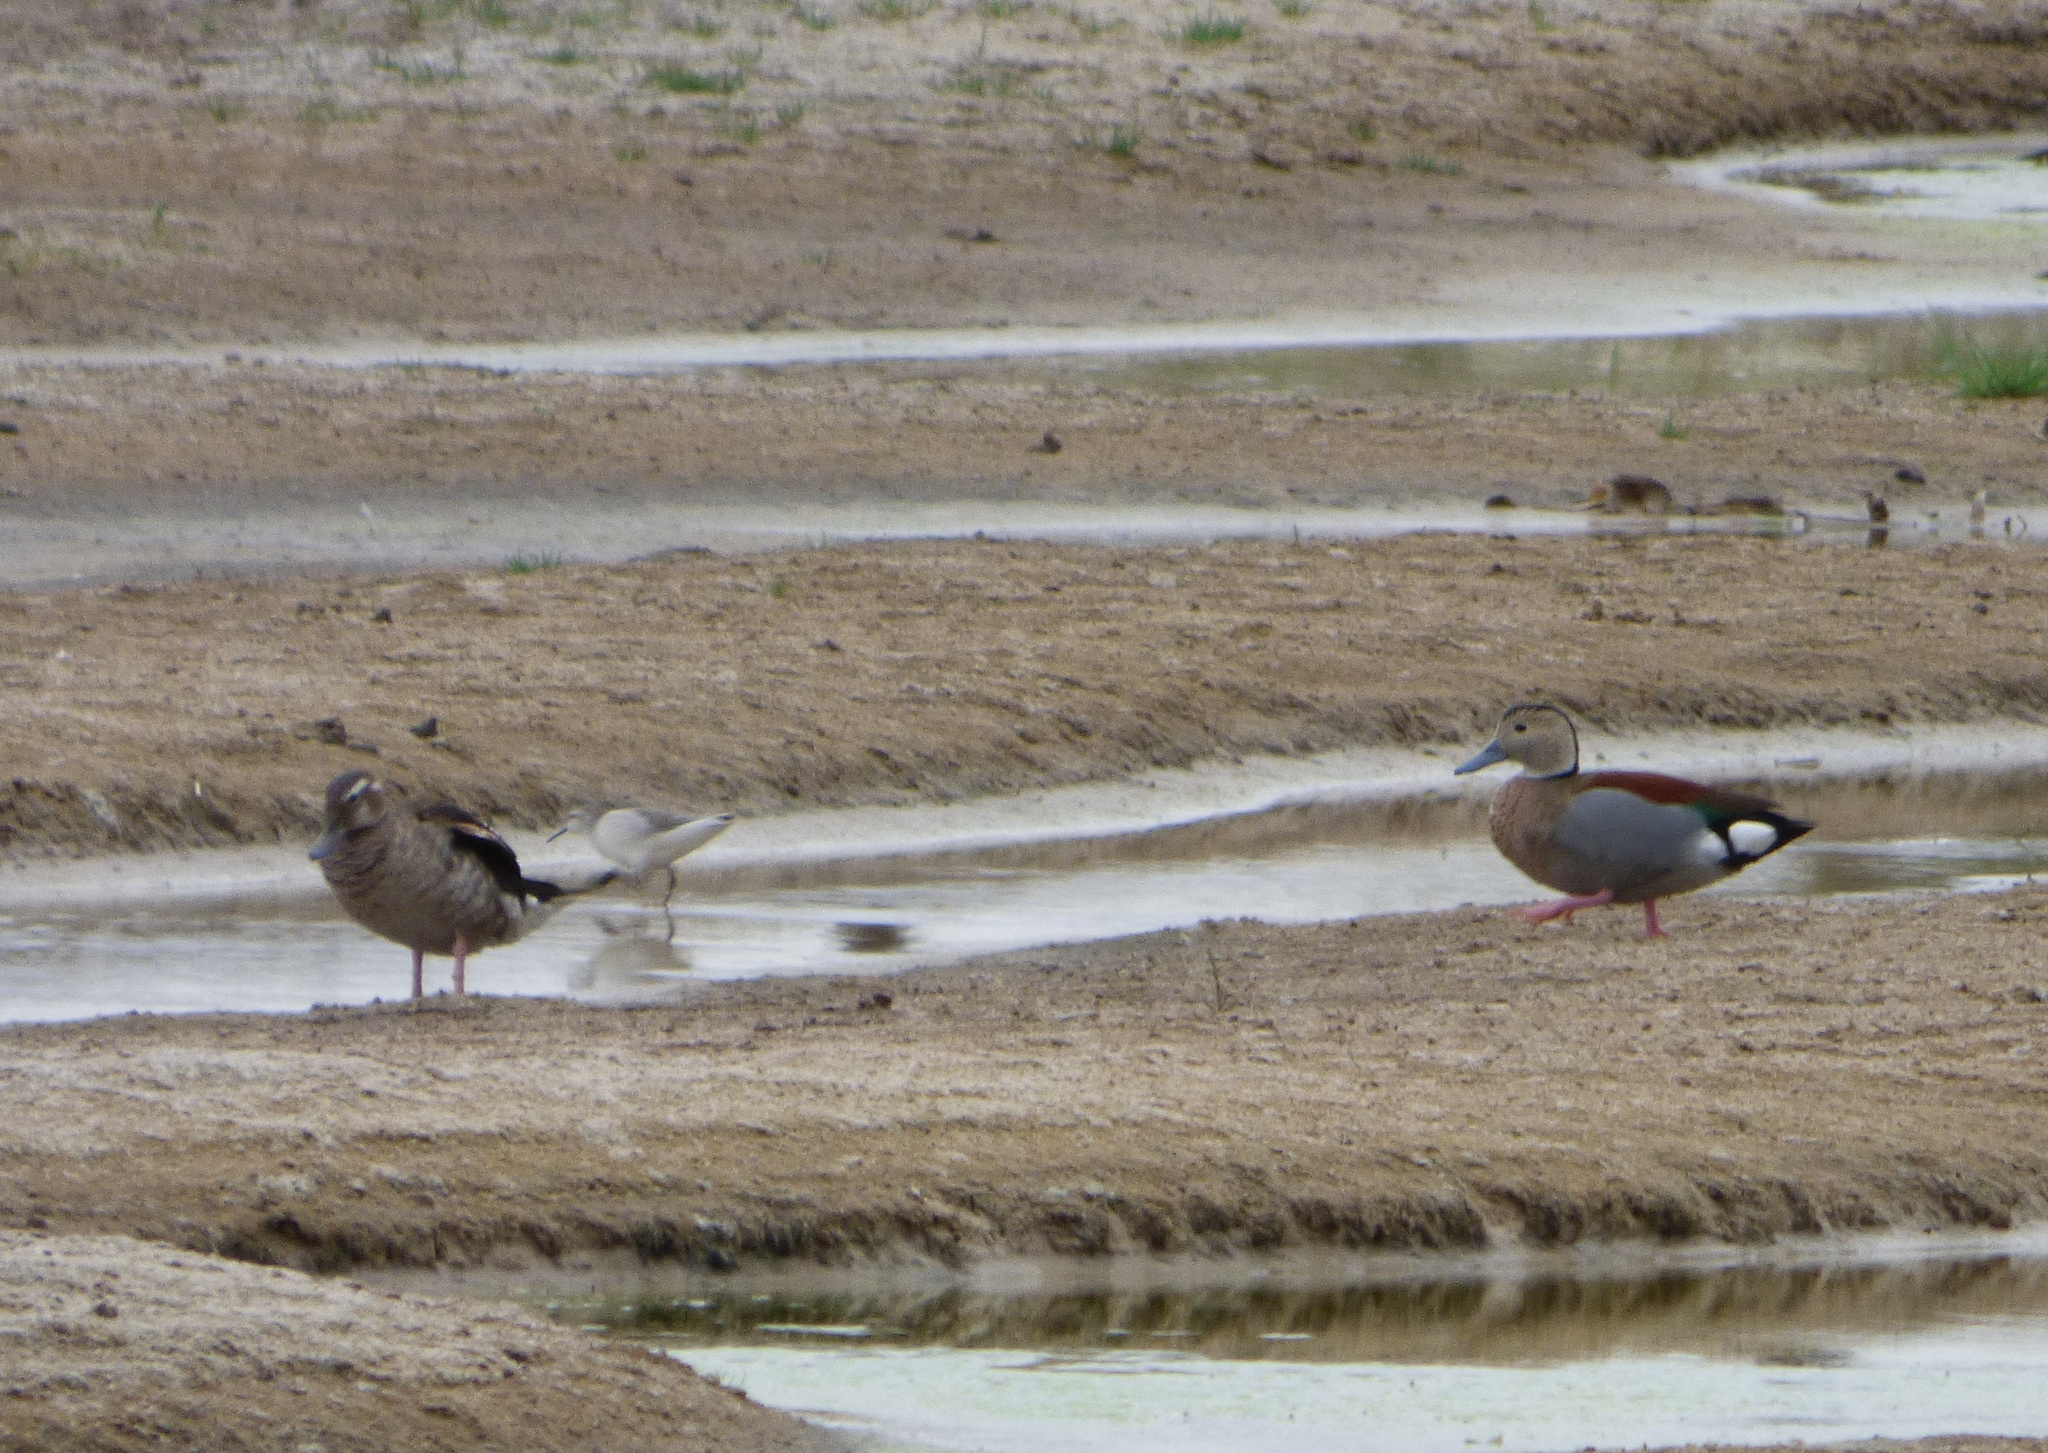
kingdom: Animalia
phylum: Chordata
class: Aves
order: Anseriformes
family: Anatidae
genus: Callonetta
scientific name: Callonetta leucophrys
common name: Ringed teal
